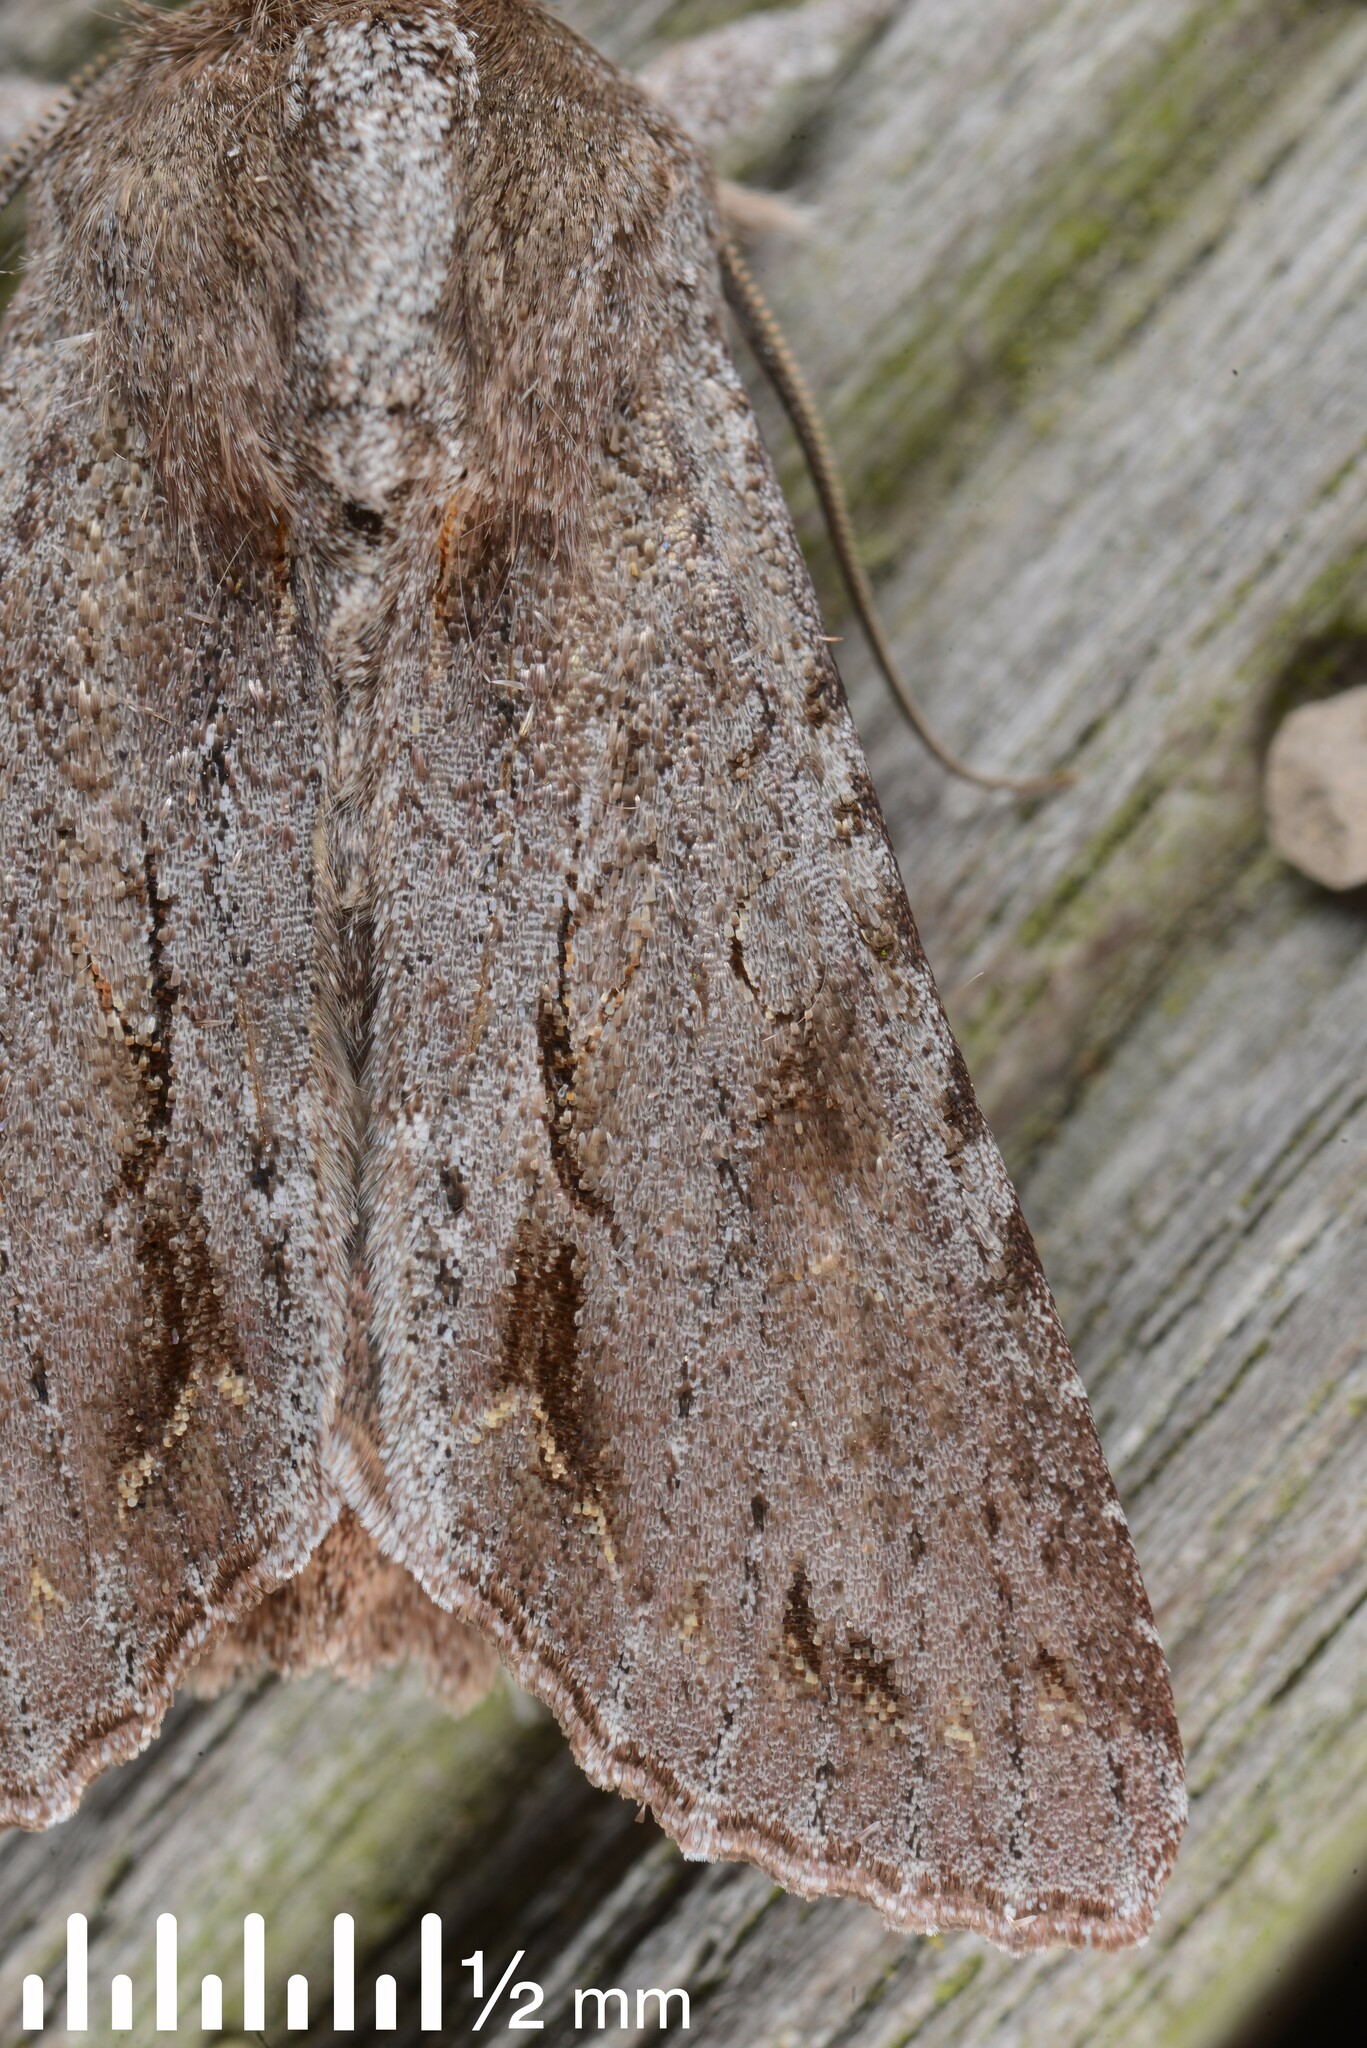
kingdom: Animalia
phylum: Arthropoda
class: Insecta
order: Lepidoptera
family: Noctuidae
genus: Ichneutica
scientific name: Ichneutica
